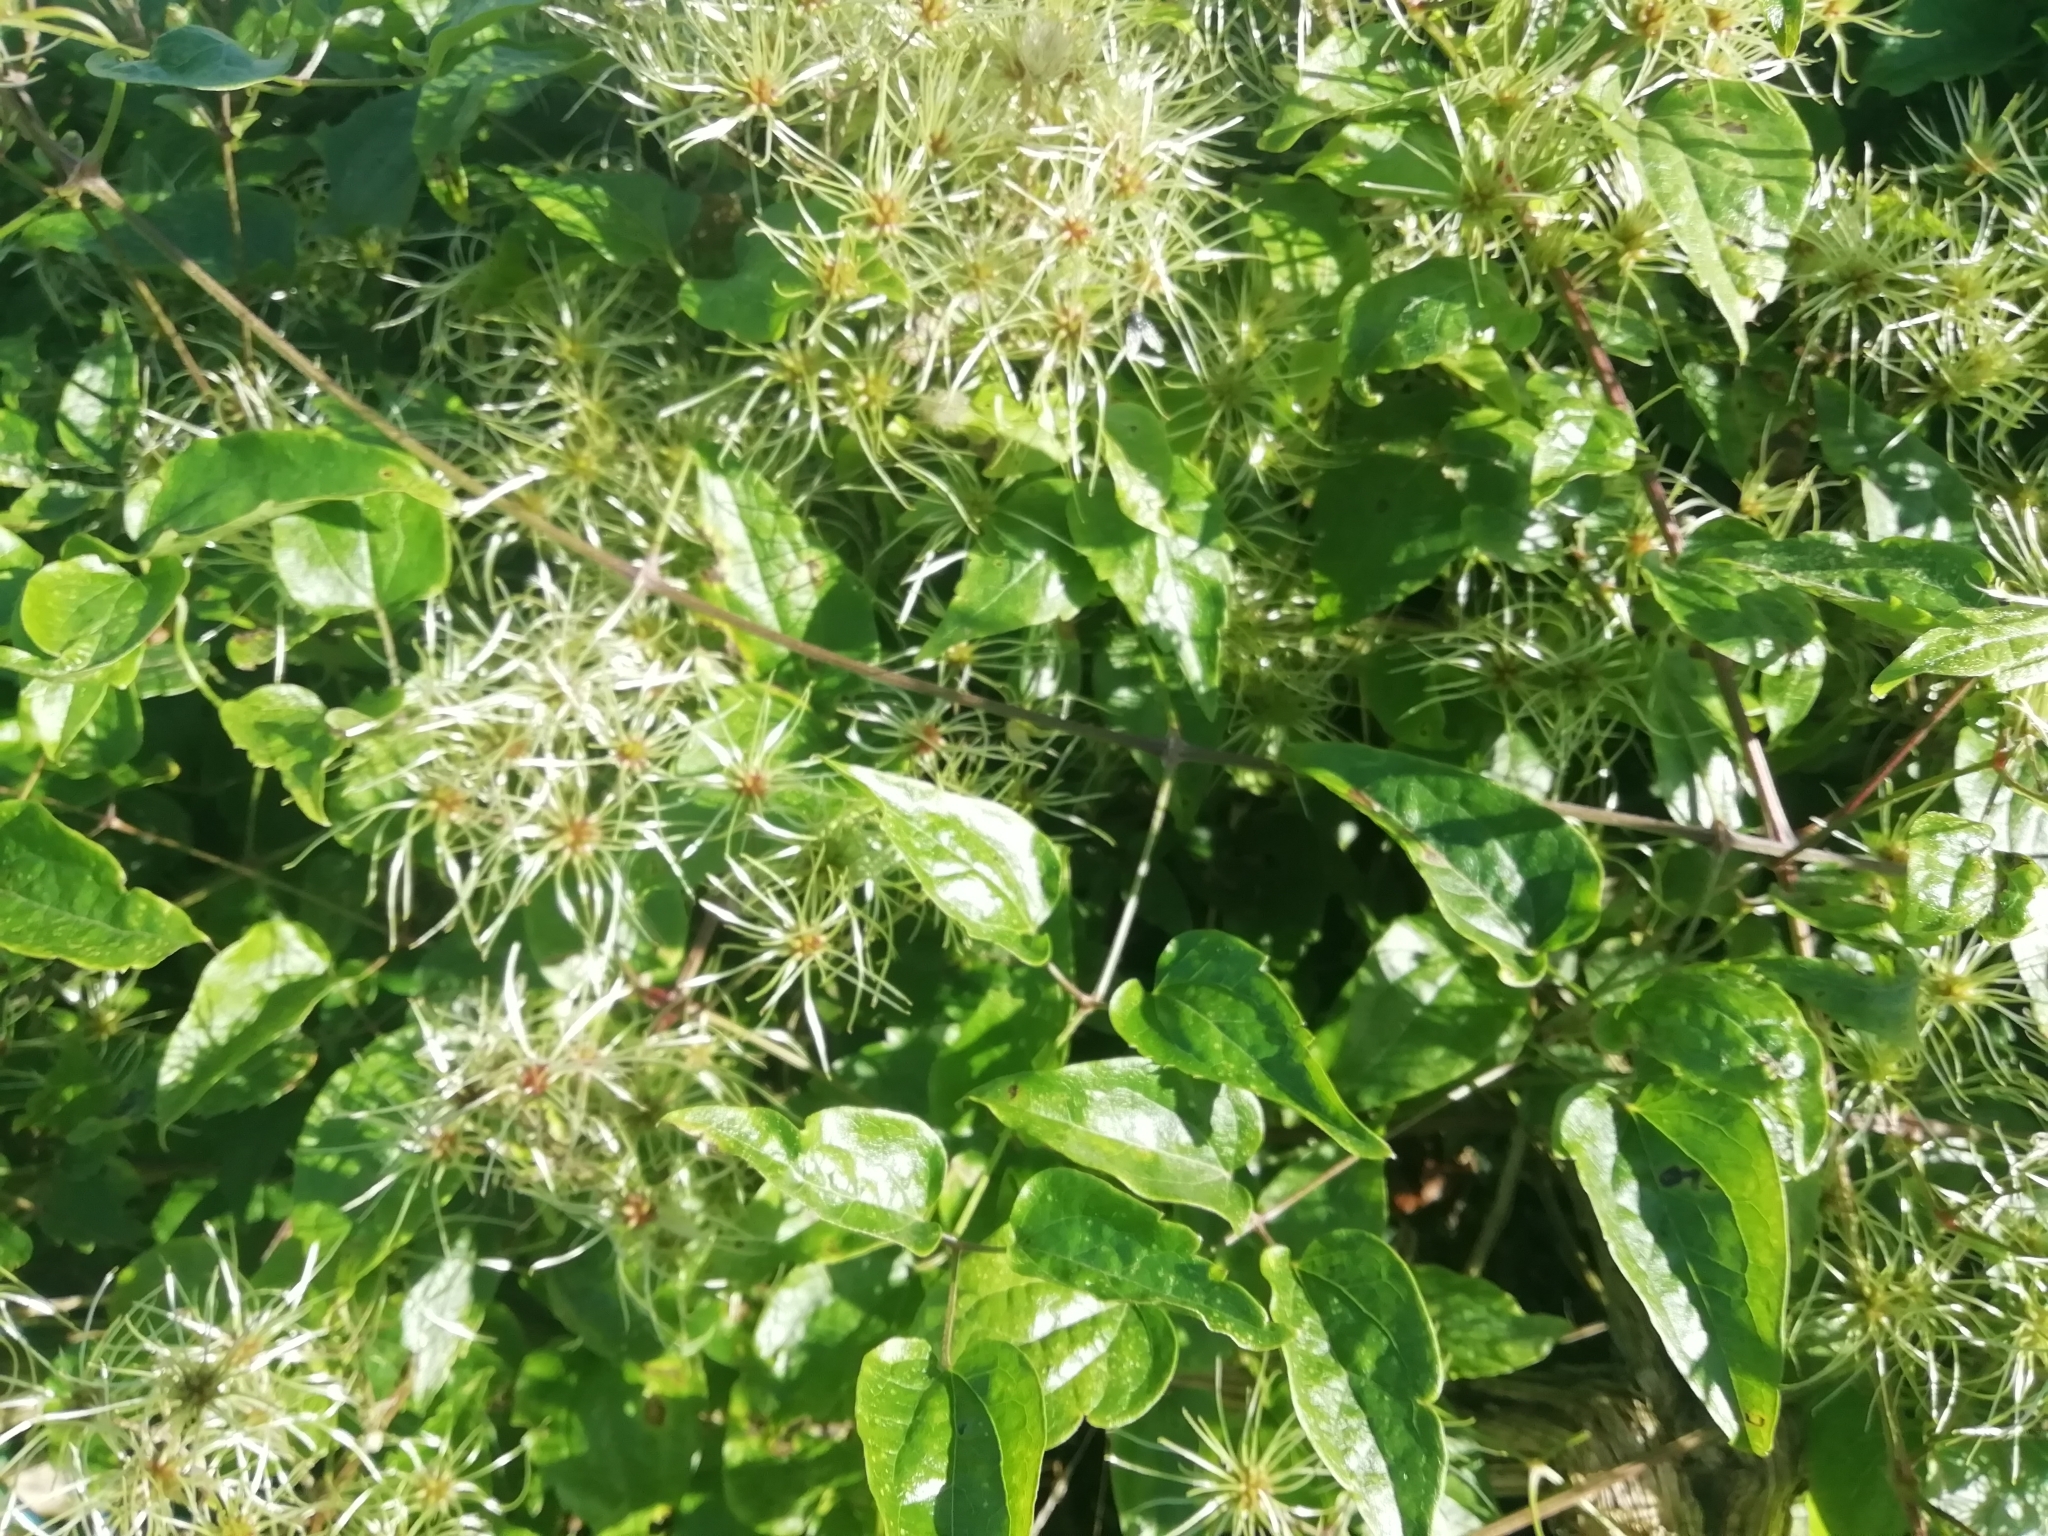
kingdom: Plantae
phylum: Tracheophyta
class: Magnoliopsida
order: Ranunculales
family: Ranunculaceae
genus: Clematis
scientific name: Clematis vitalba
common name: Evergreen clematis
